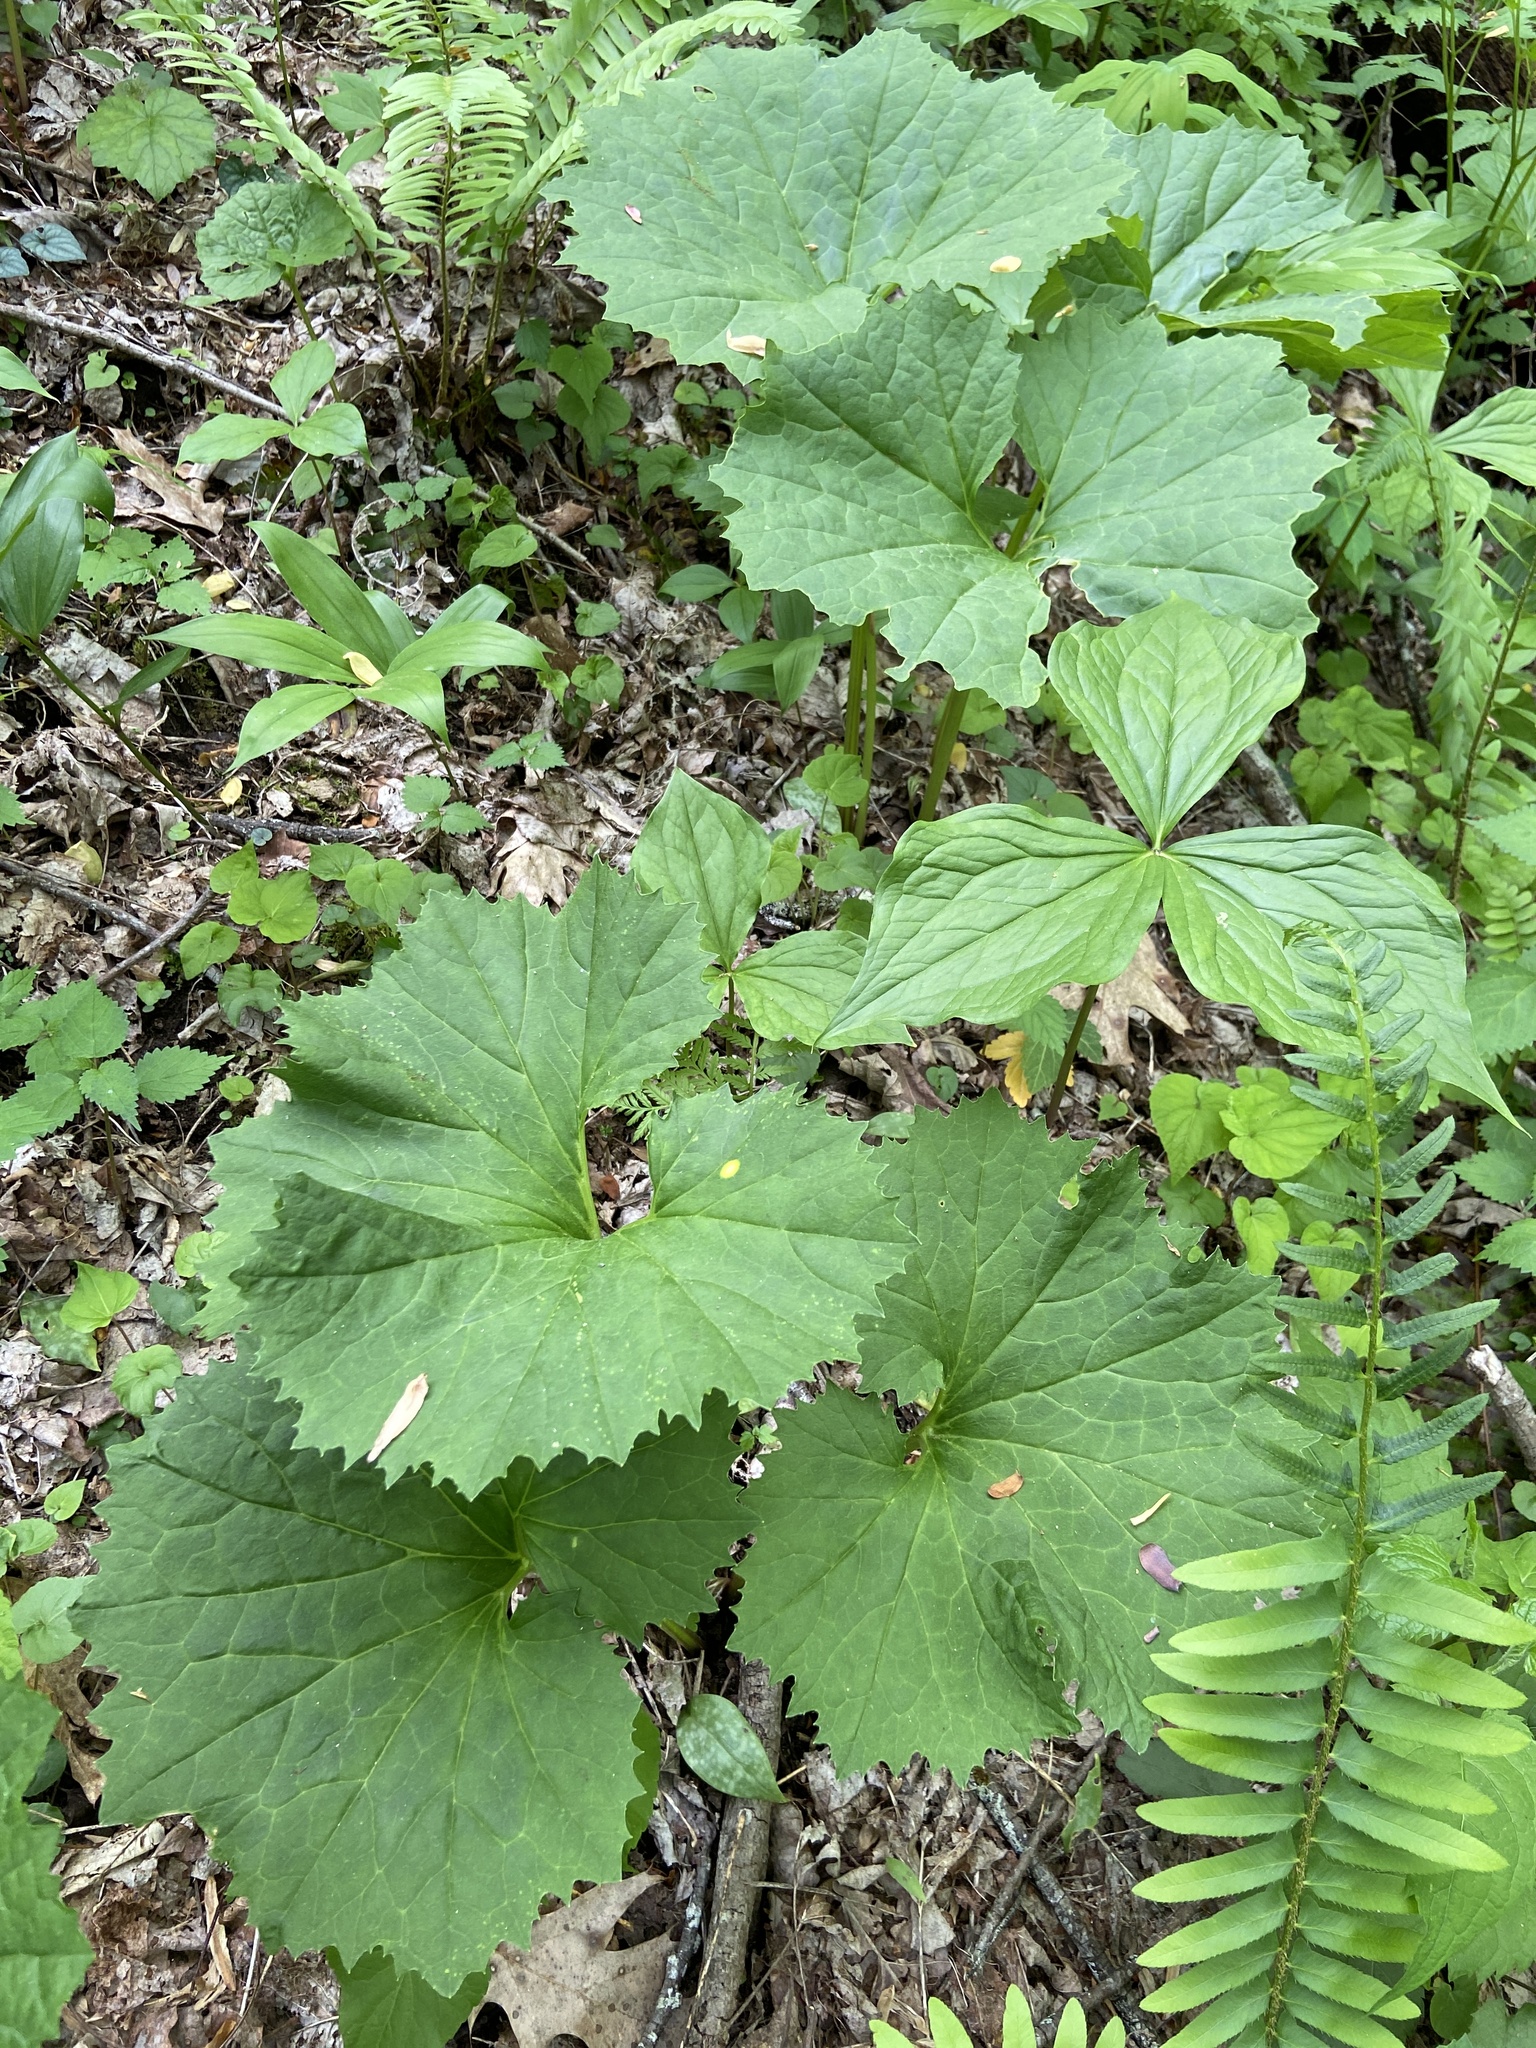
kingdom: Plantae
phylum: Tracheophyta
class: Magnoliopsida
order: Asterales
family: Asteraceae
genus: Arnoglossum
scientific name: Arnoglossum reniforme
